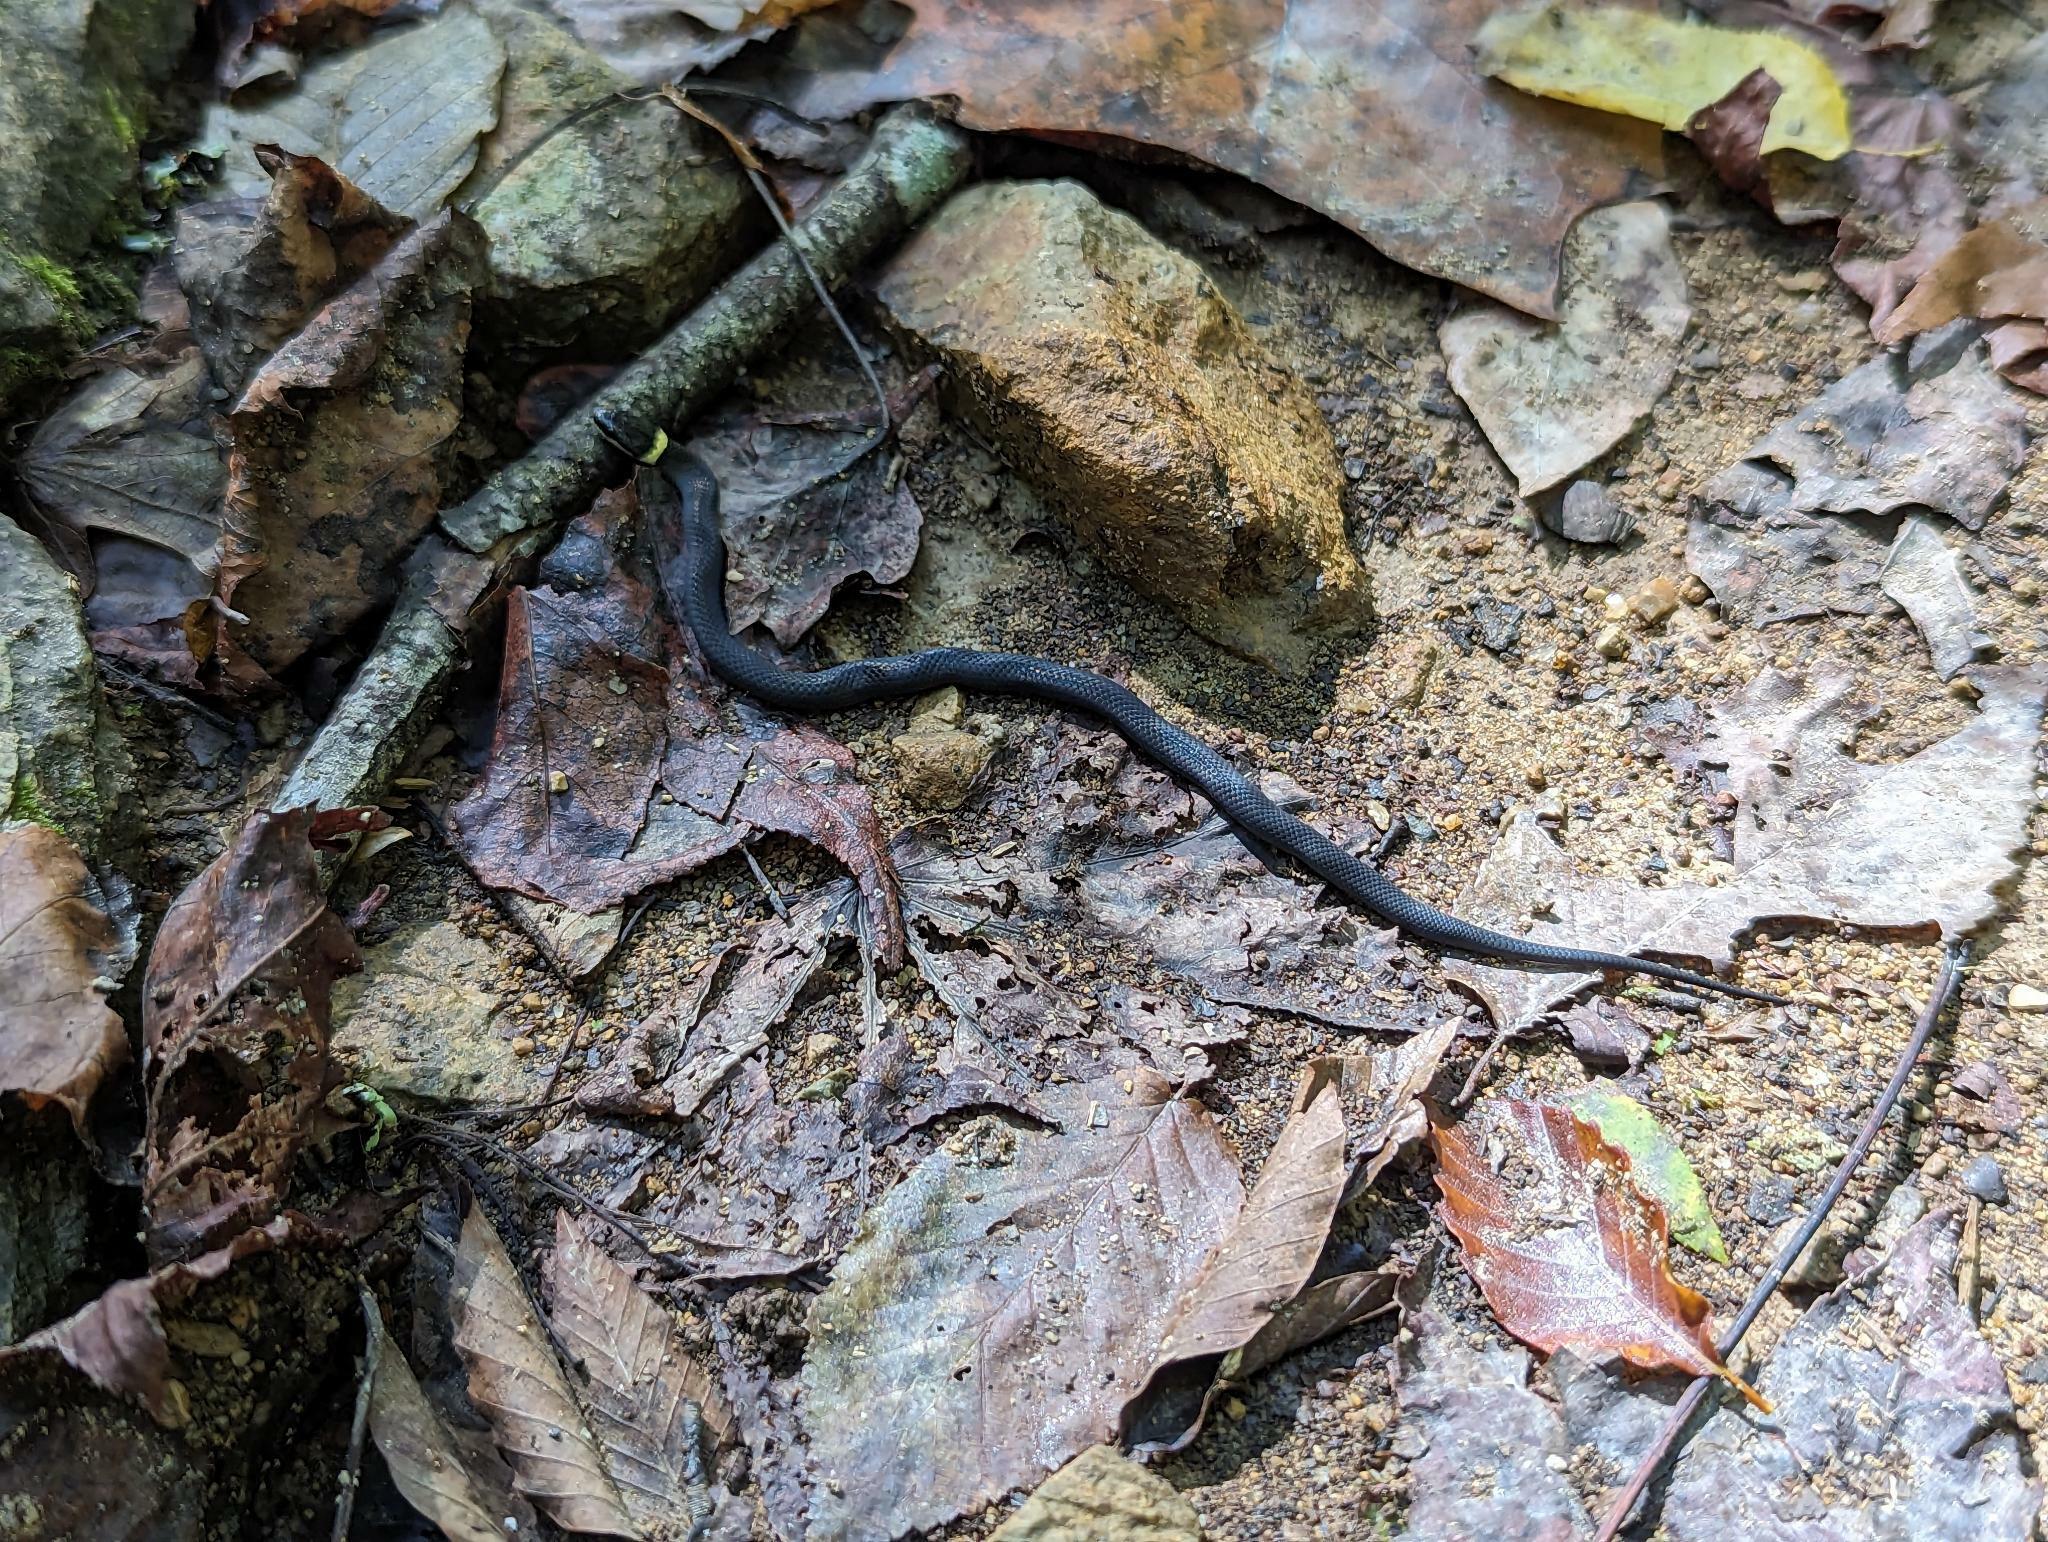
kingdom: Animalia
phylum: Chordata
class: Squamata
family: Colubridae
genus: Diadophis
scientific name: Diadophis punctatus
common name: Ringneck snake
